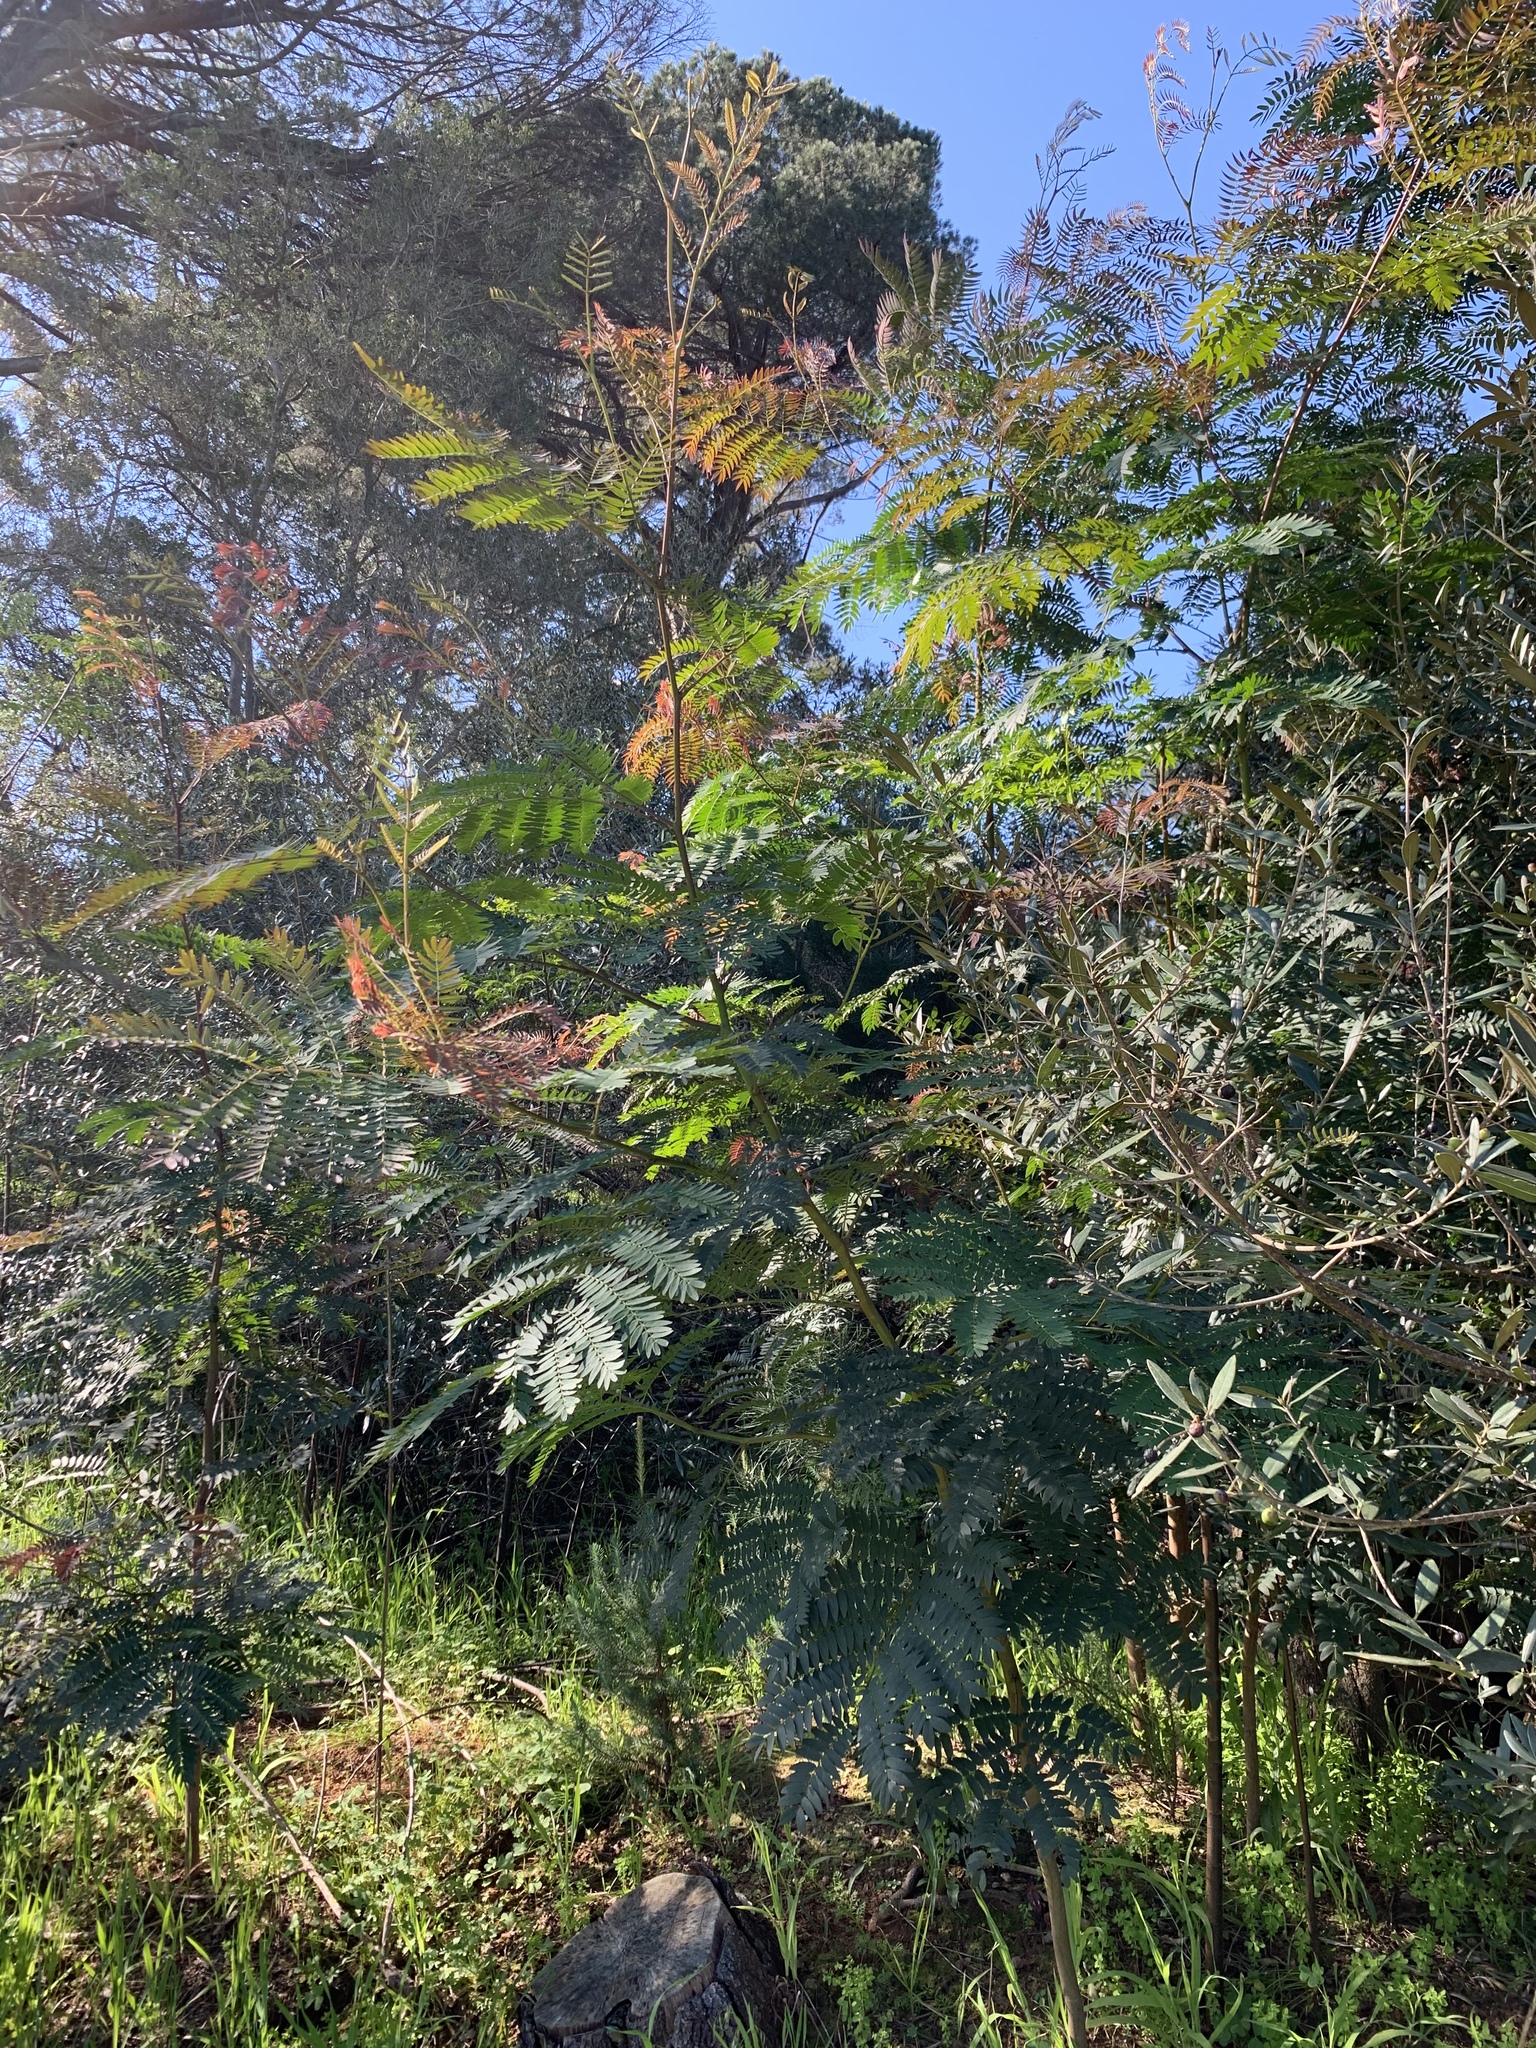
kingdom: Plantae
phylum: Tracheophyta
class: Magnoliopsida
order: Fabales
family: Fabaceae
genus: Acacia
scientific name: Acacia elata
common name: Cedar wattle
